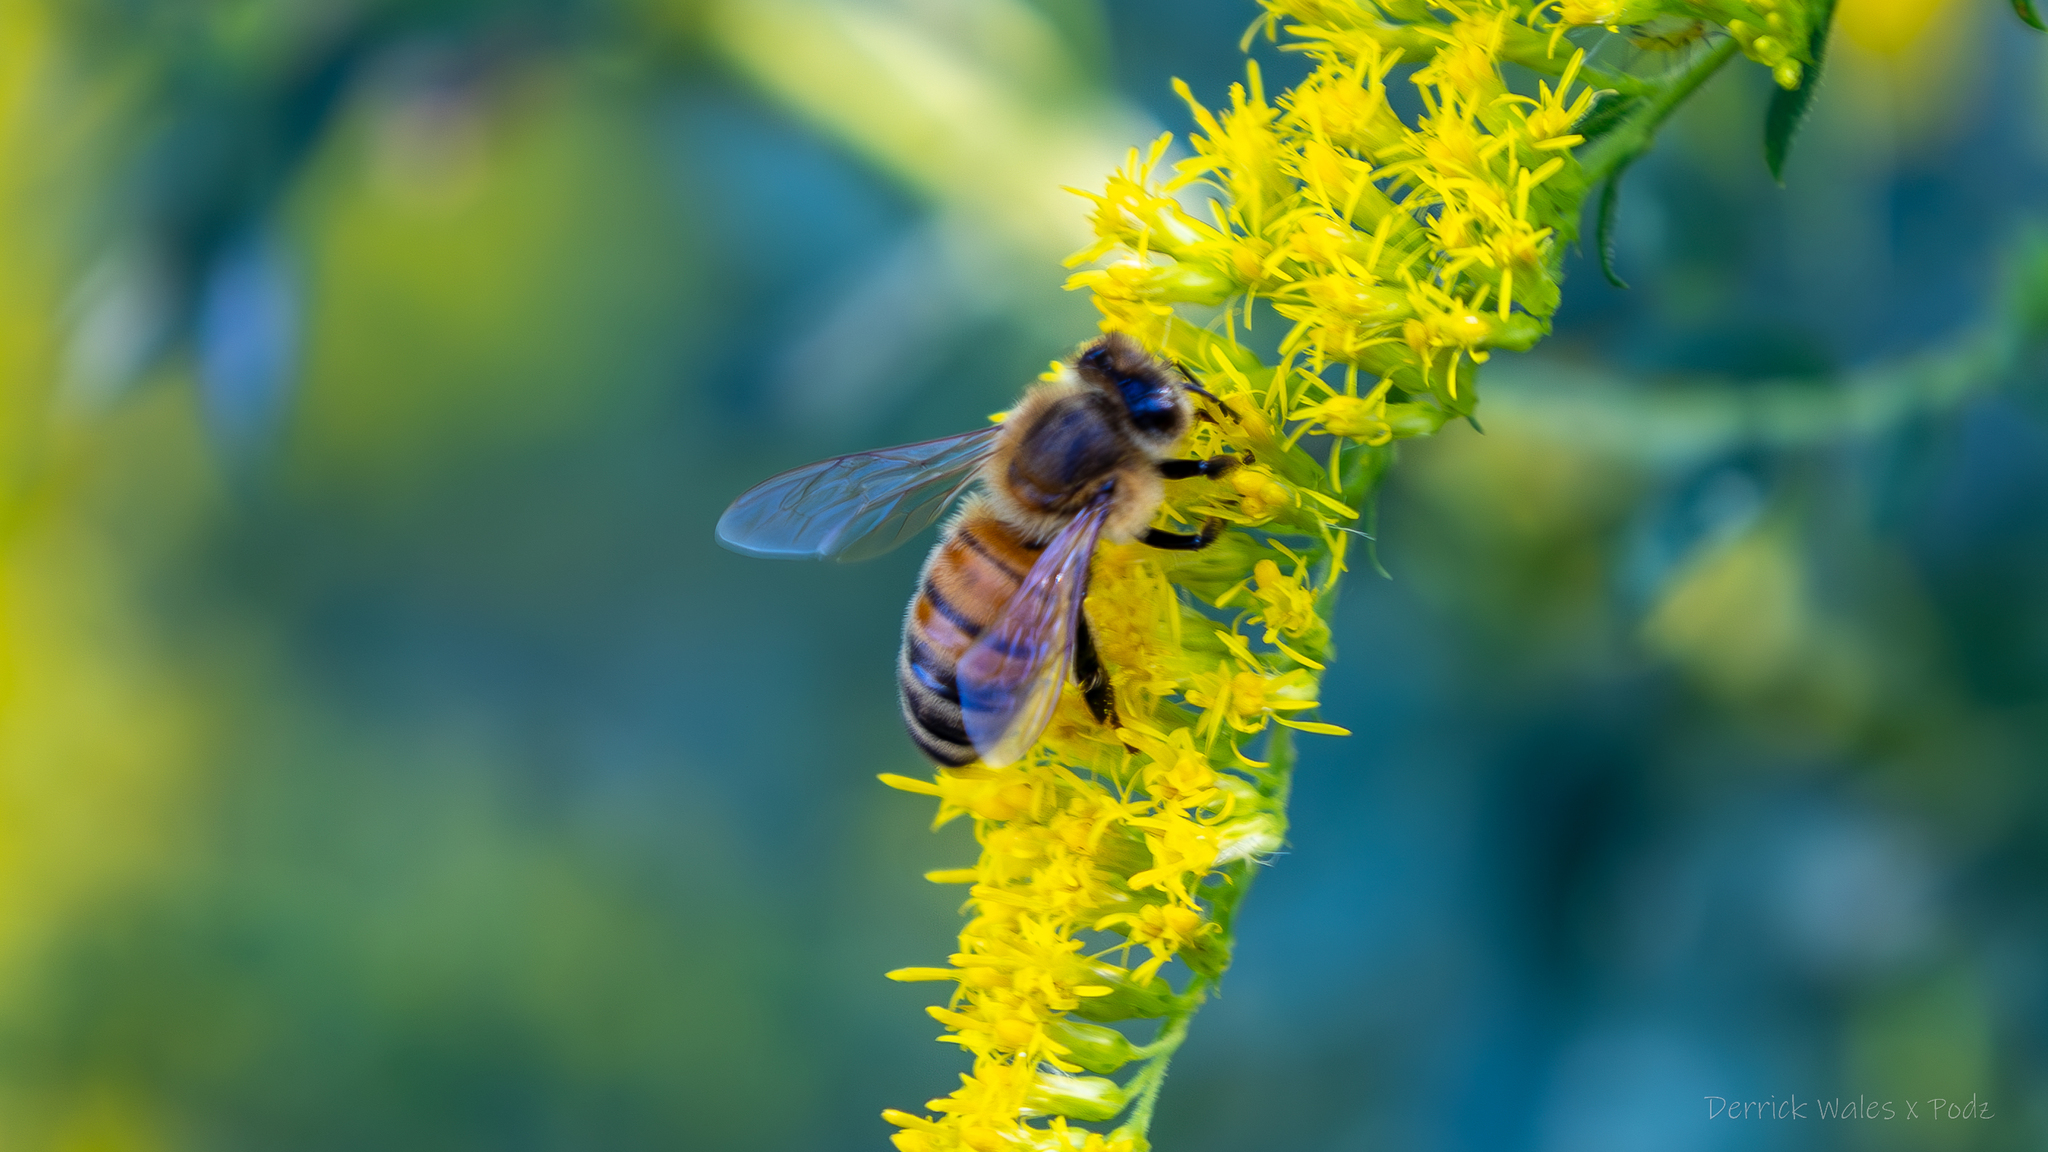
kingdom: Animalia
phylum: Arthropoda
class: Insecta
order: Hymenoptera
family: Apidae
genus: Apis
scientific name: Apis mellifera
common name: Honey bee
